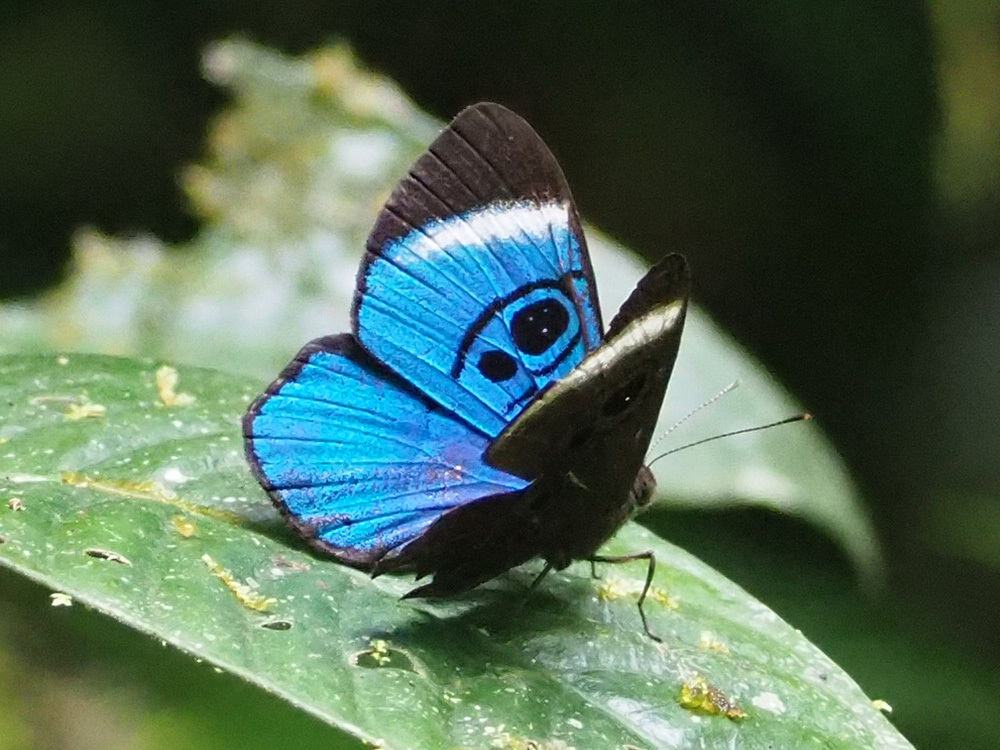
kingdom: Animalia
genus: Mesosemia
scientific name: Mesosemia loruhama
